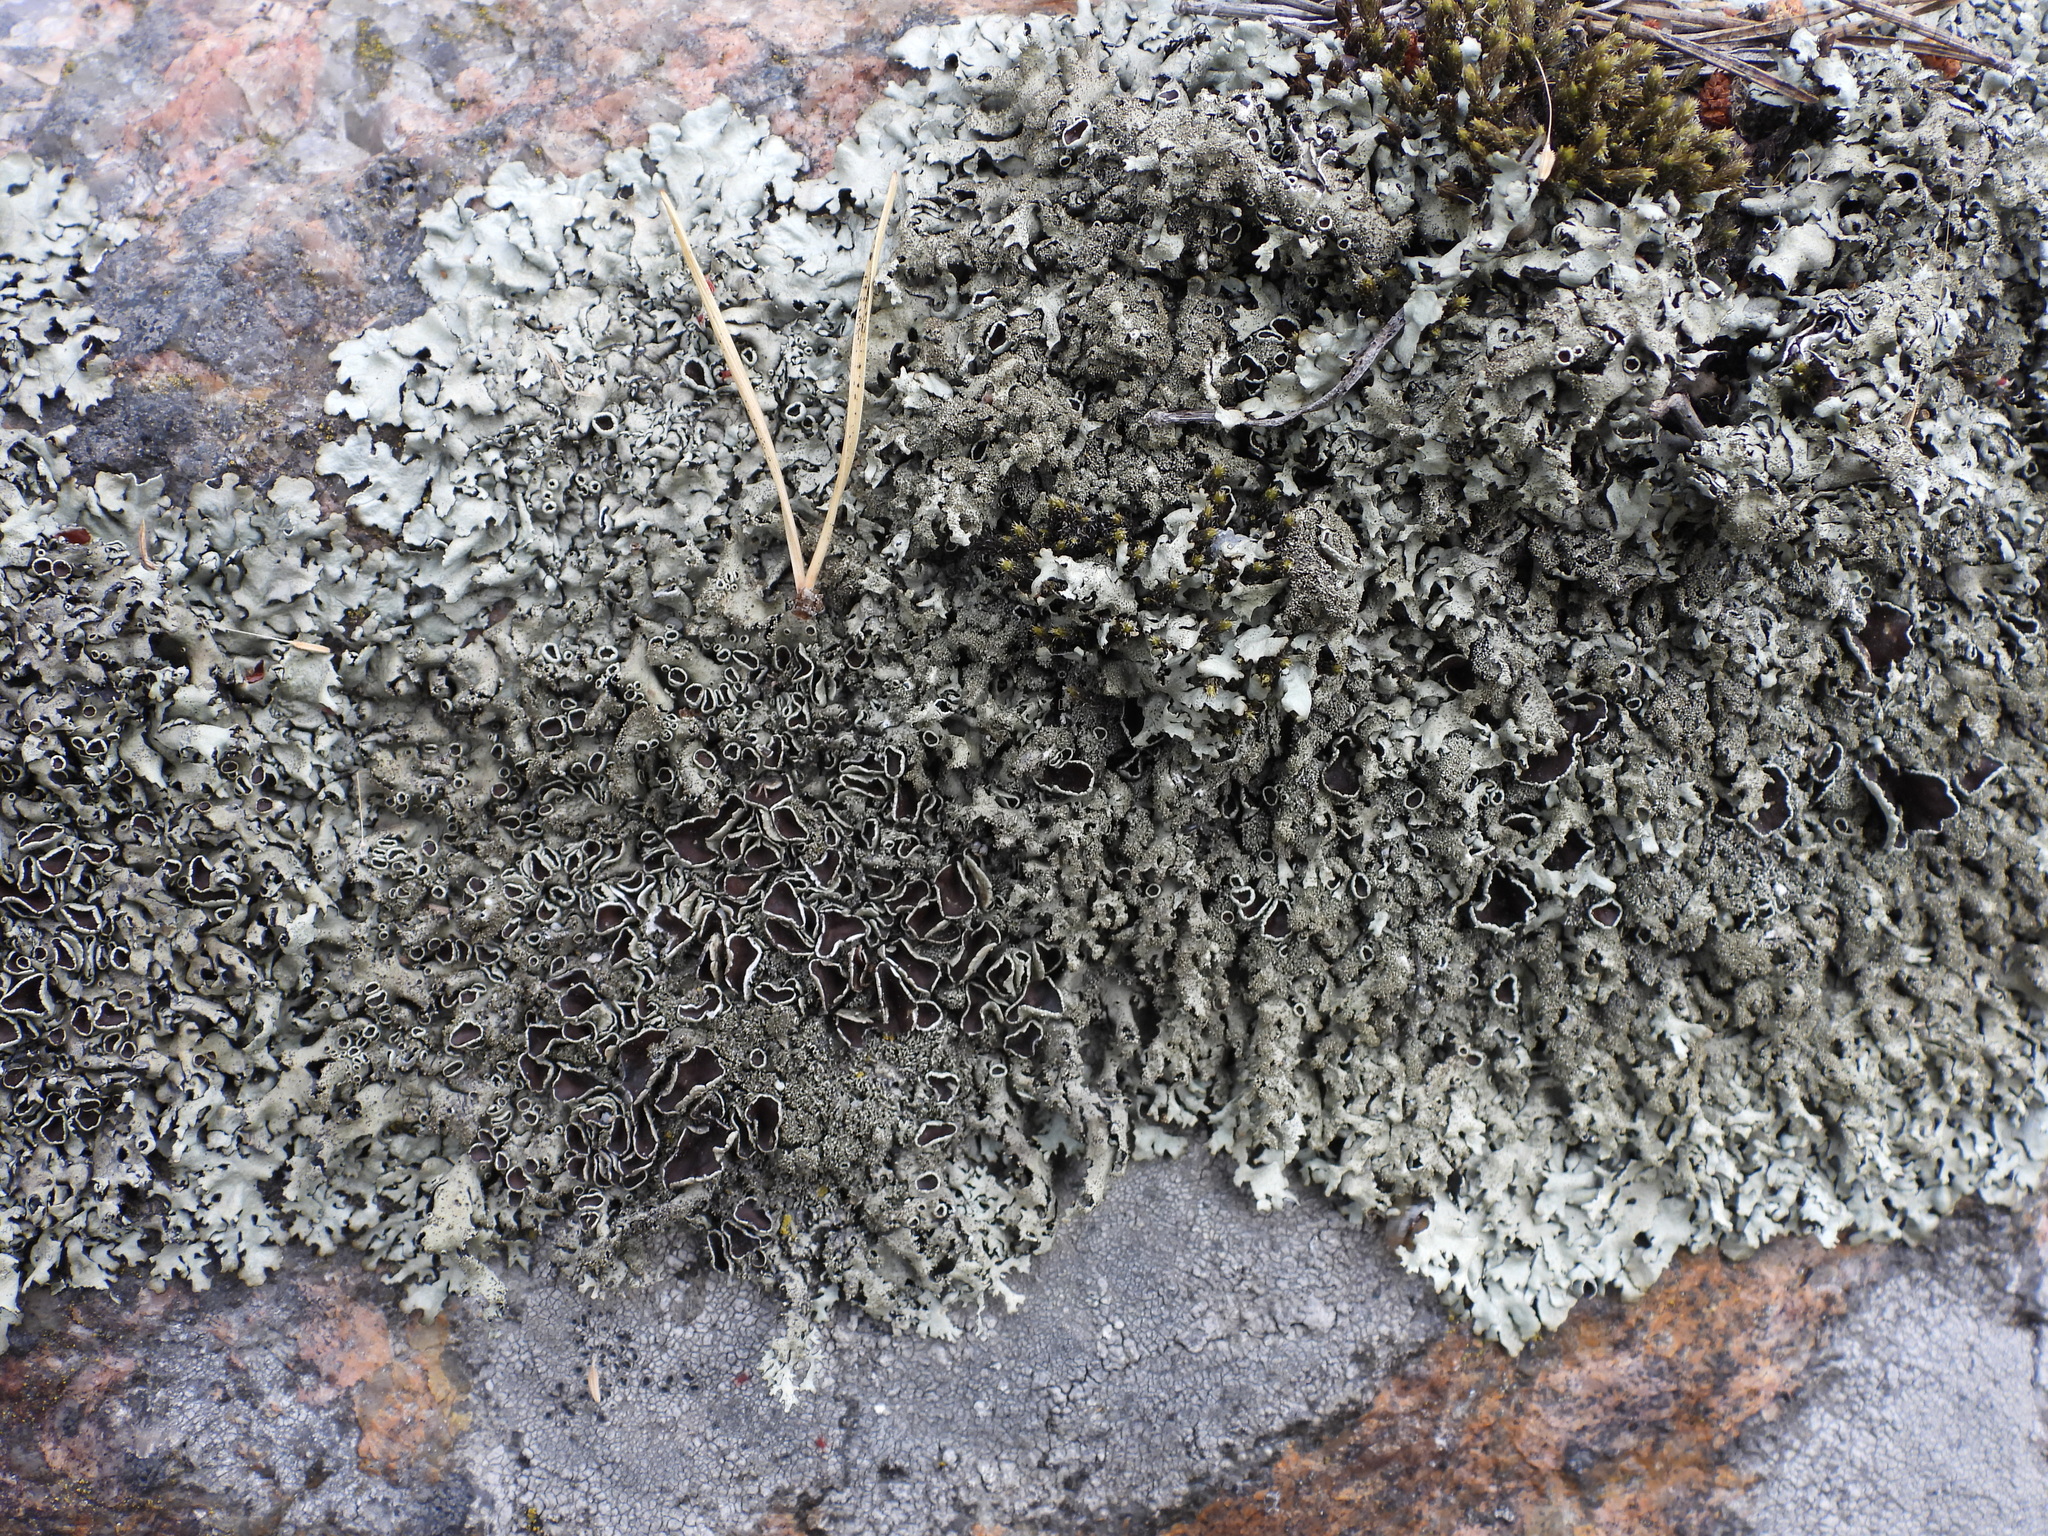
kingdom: Fungi
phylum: Ascomycota
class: Lecanoromycetes
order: Lecanorales
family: Parmeliaceae
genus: Xanthoparmelia
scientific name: Xanthoparmelia conspersa
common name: Peppered rock shield
